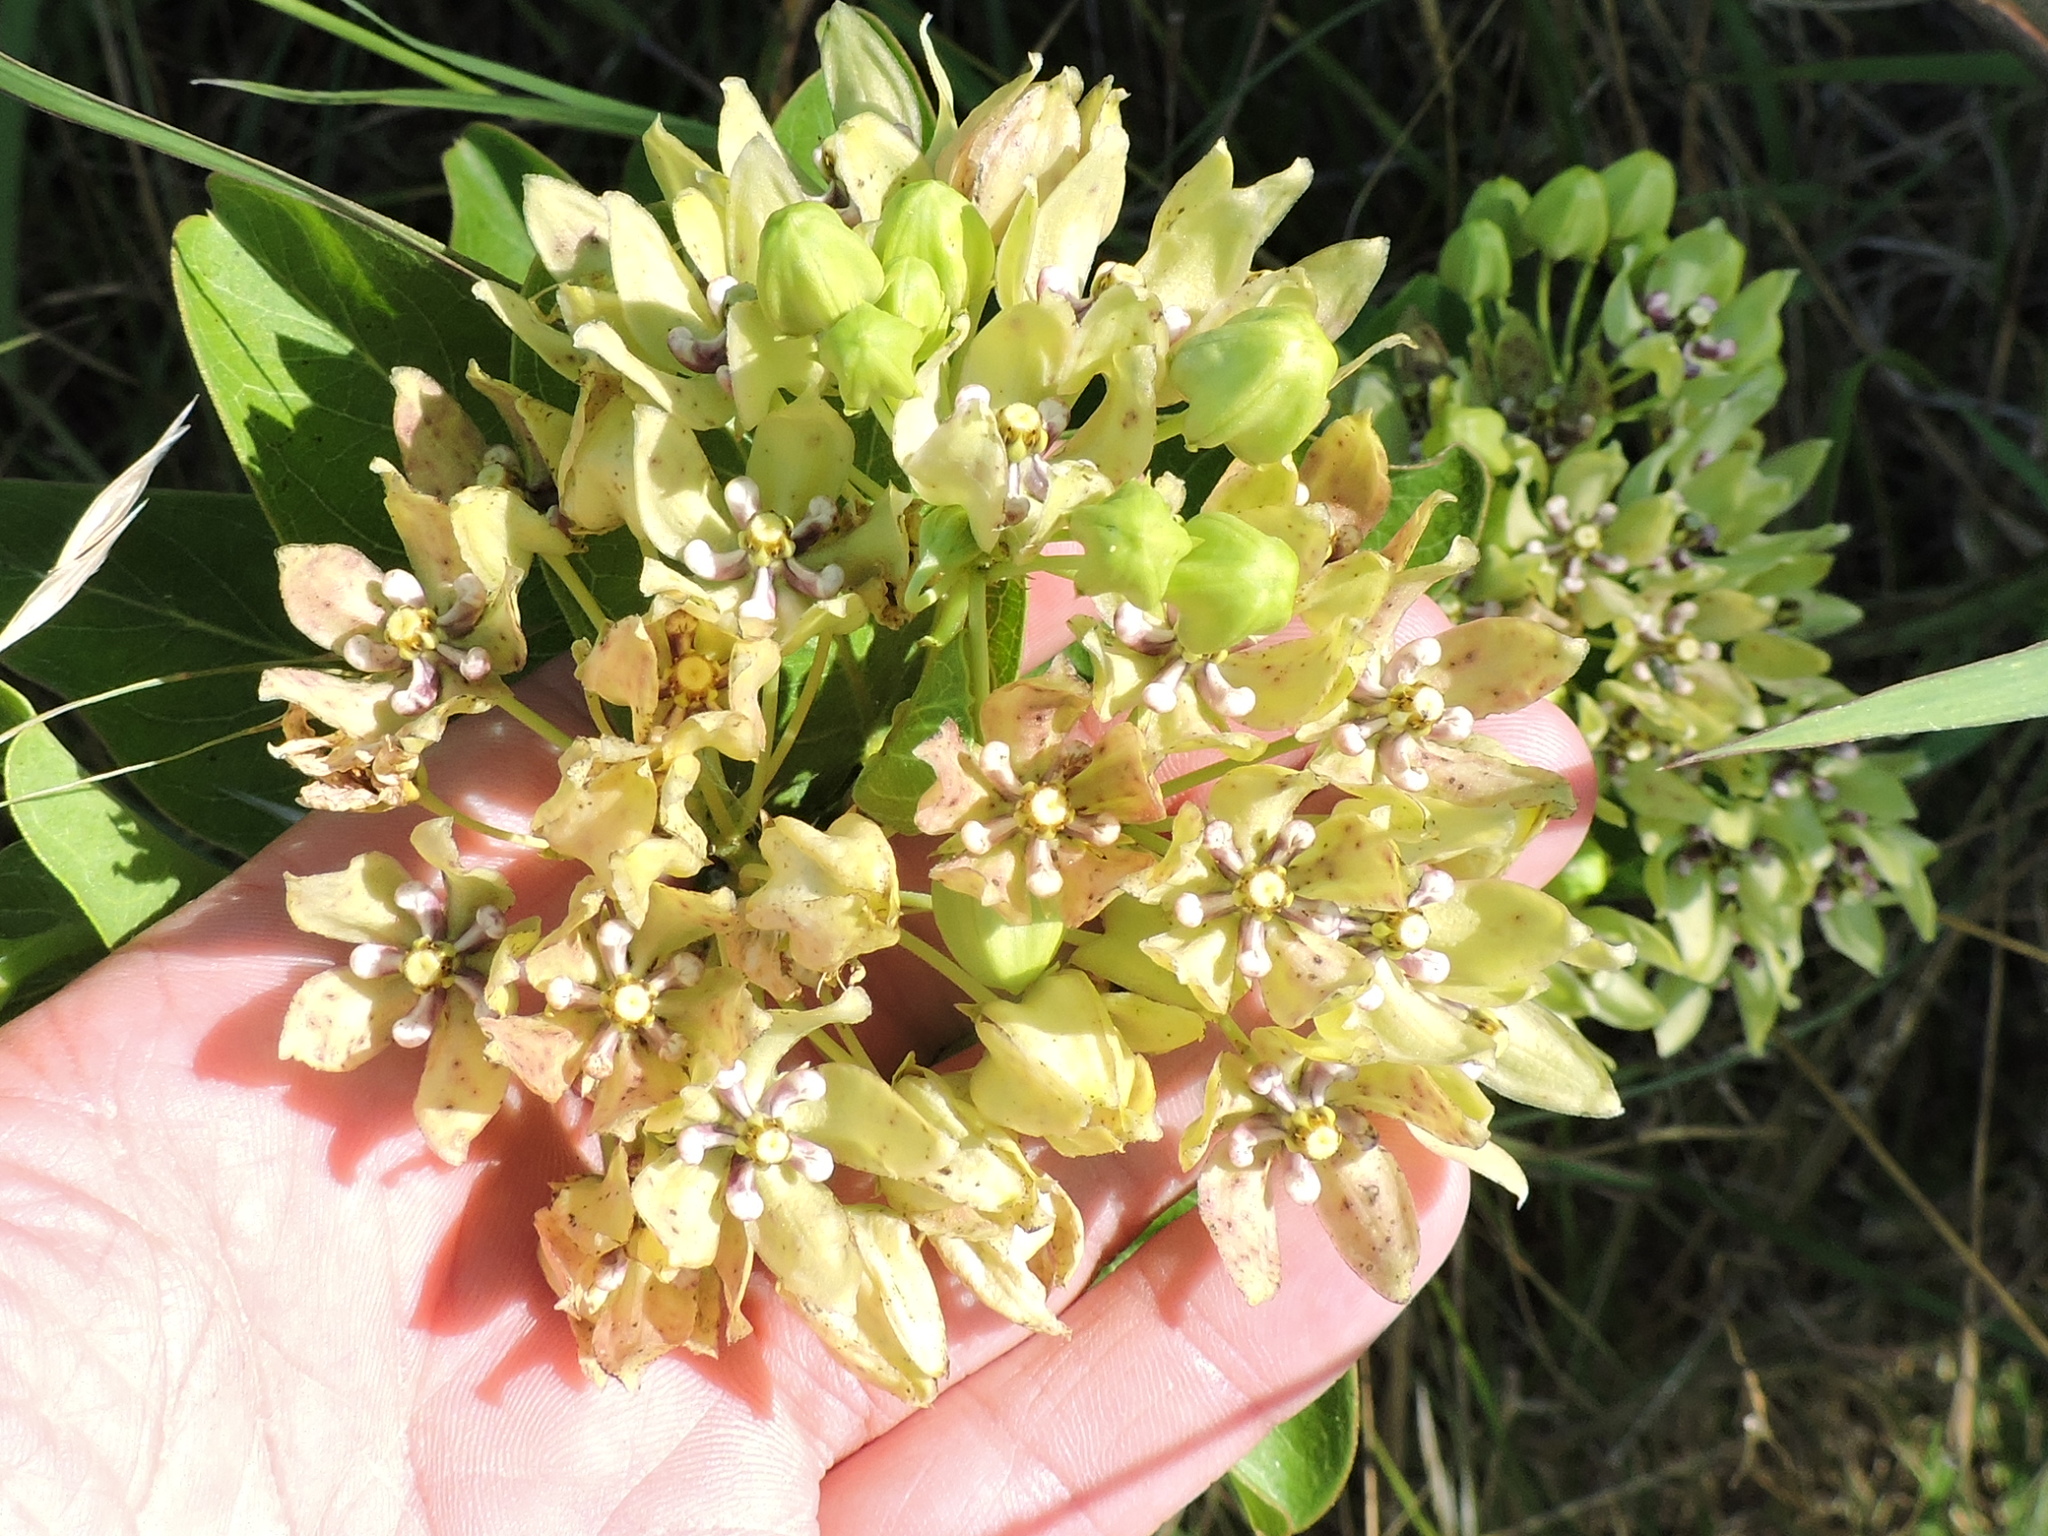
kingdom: Plantae
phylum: Tracheophyta
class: Magnoliopsida
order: Gentianales
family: Apocynaceae
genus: Asclepias
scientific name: Asclepias viridis
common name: Antelope-horns
